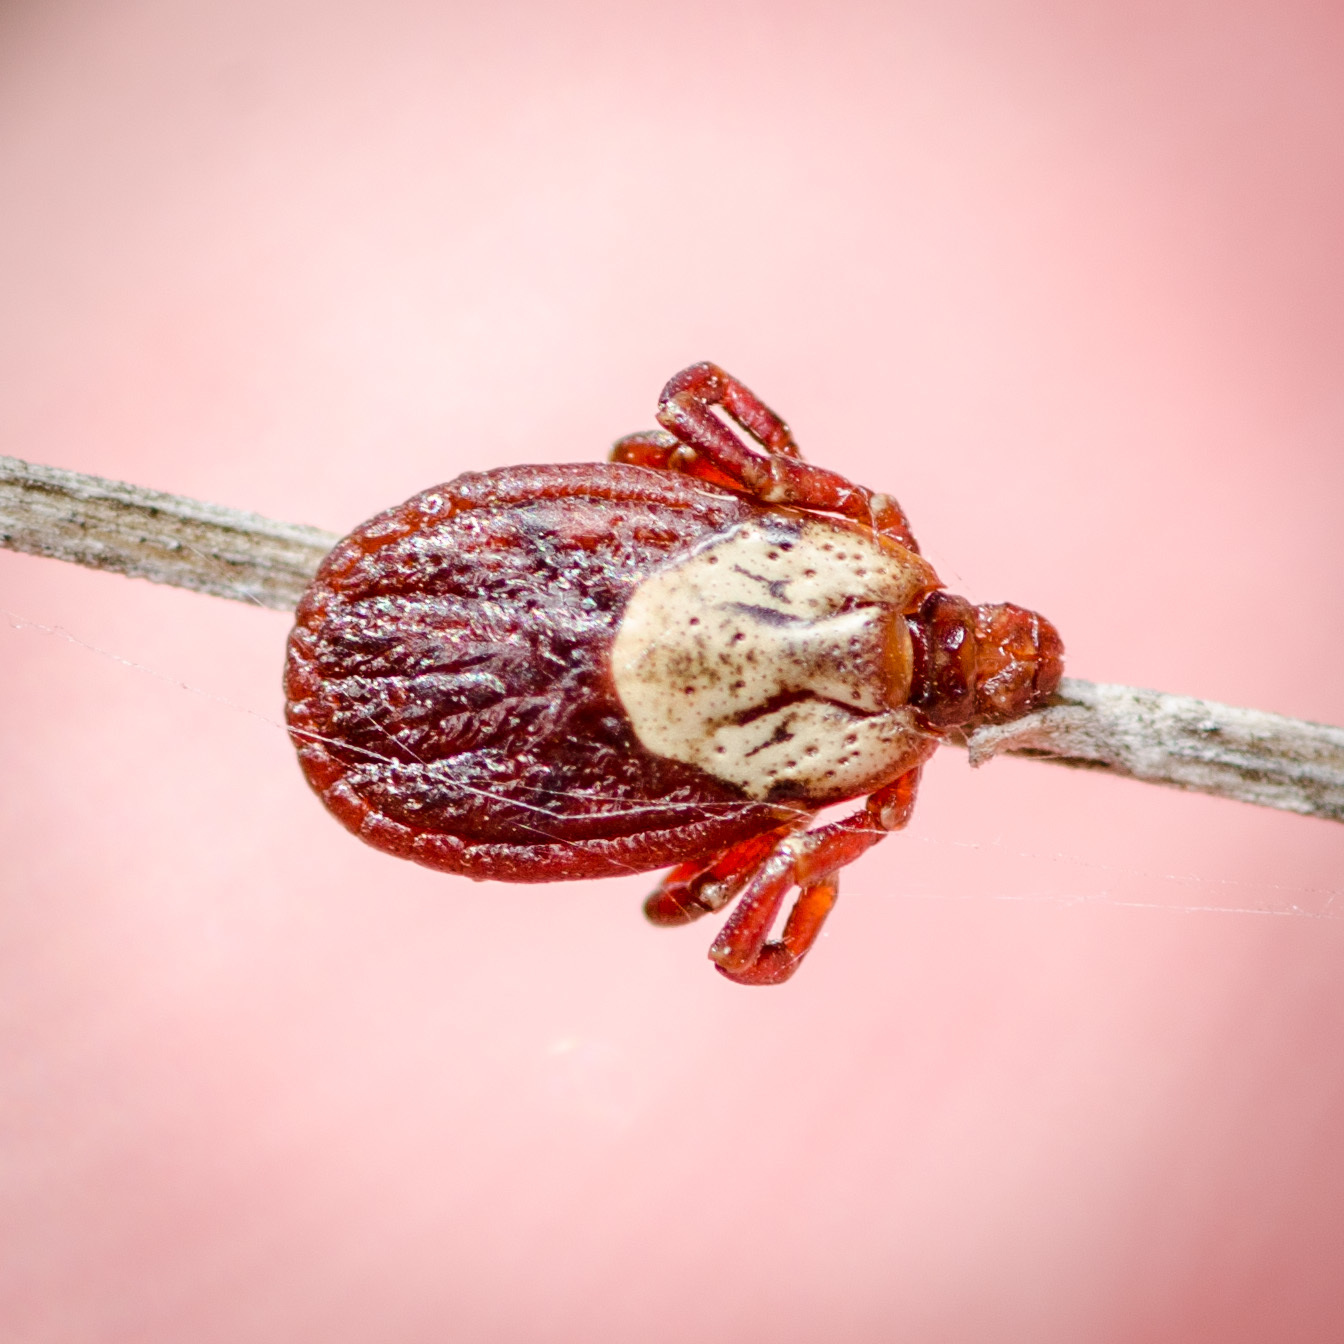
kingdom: Animalia
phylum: Arthropoda
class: Arachnida
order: Ixodida
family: Ixodidae
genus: Dermacentor
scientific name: Dermacentor variabilis
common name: American dog tick
